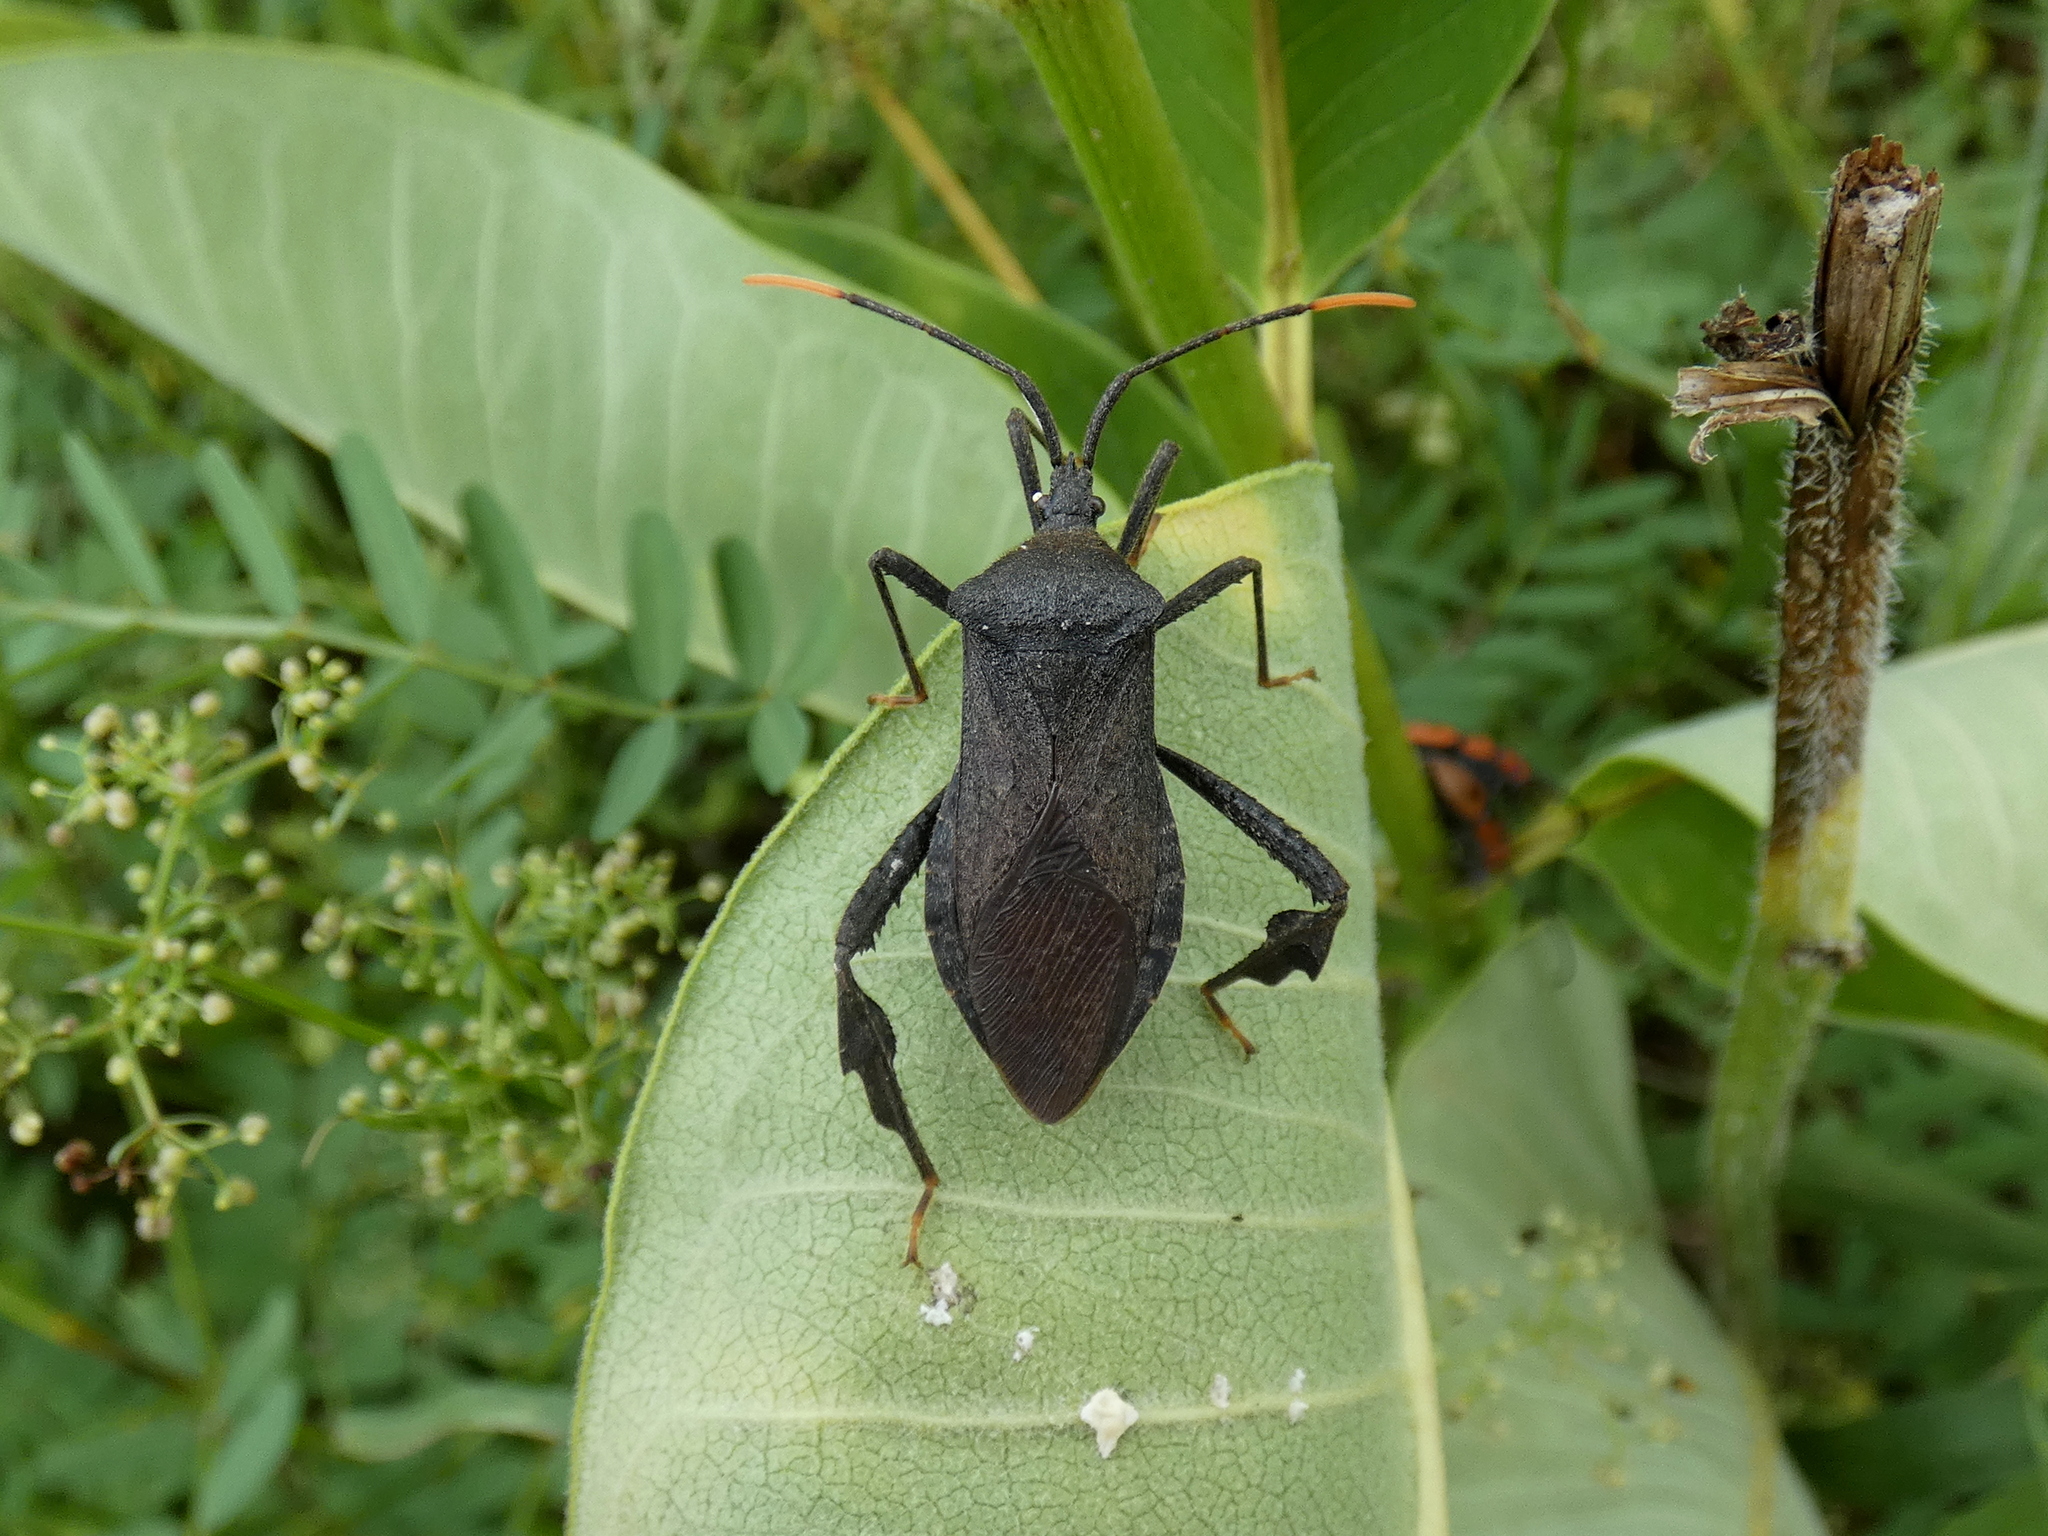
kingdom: Animalia
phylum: Arthropoda
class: Insecta
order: Hemiptera
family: Coreidae
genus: Acanthocephala
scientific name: Acanthocephala terminalis
